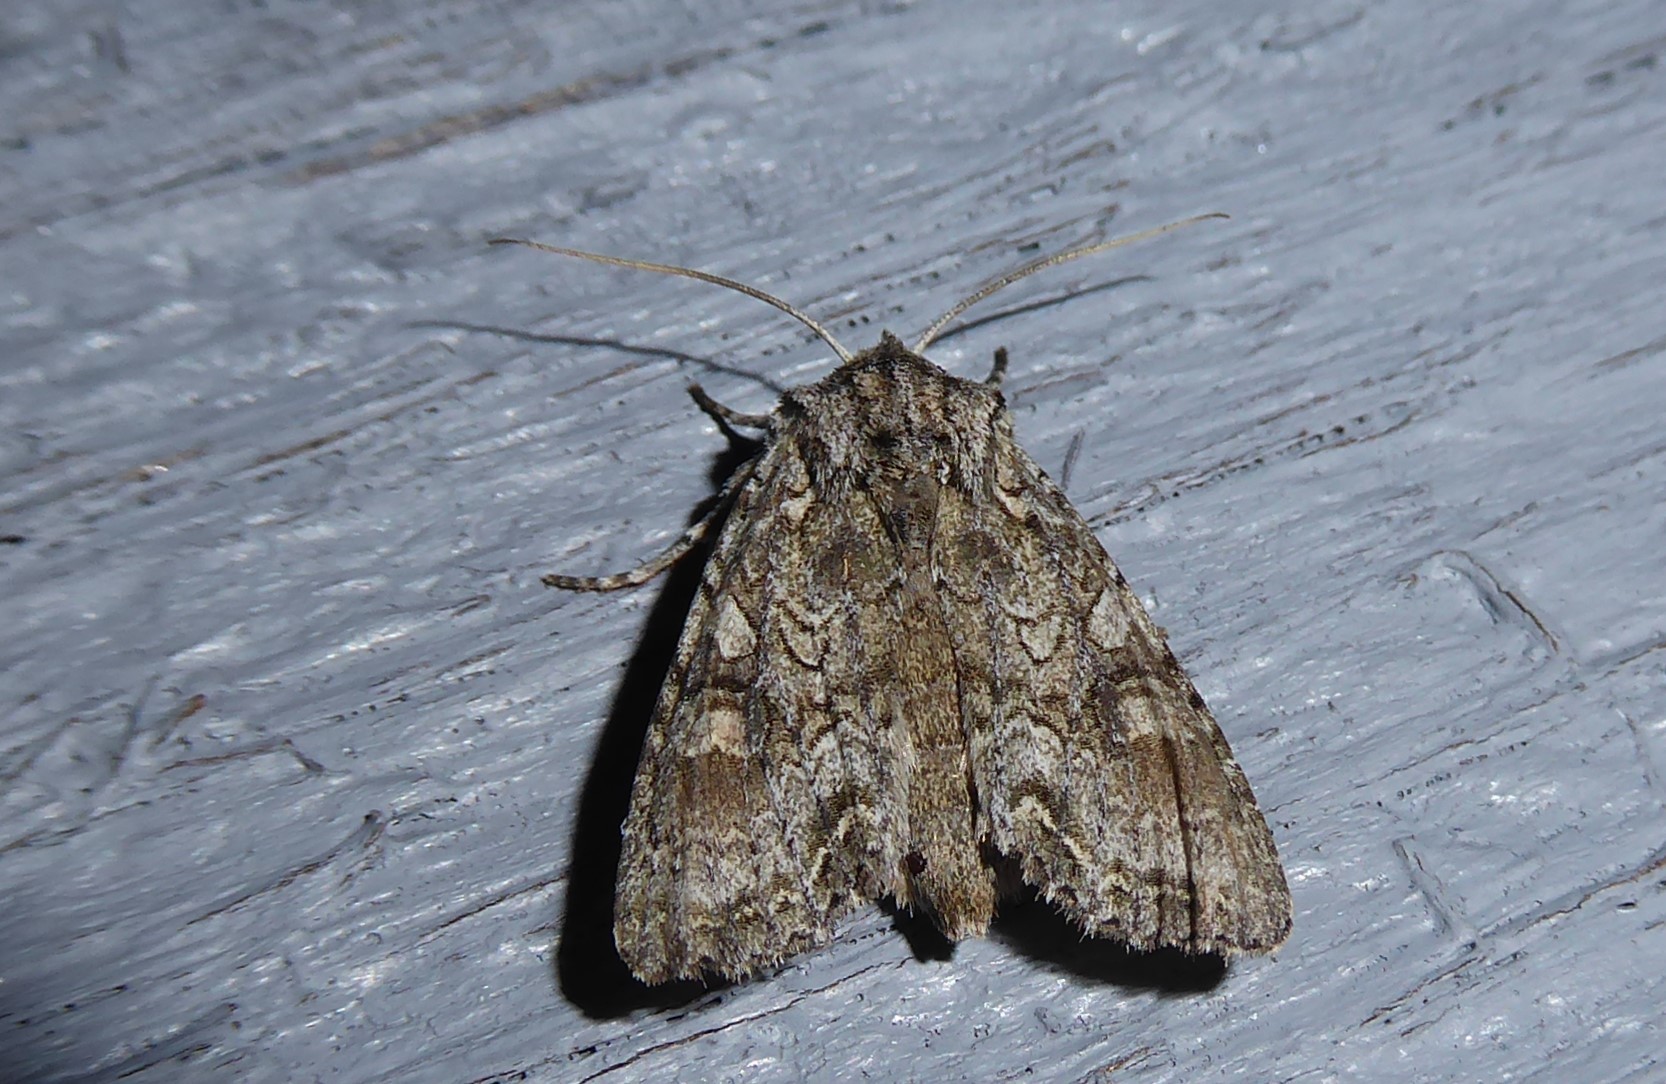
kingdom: Animalia
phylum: Arthropoda
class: Insecta
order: Lepidoptera
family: Noctuidae
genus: Ichneutica
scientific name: Ichneutica mutans
